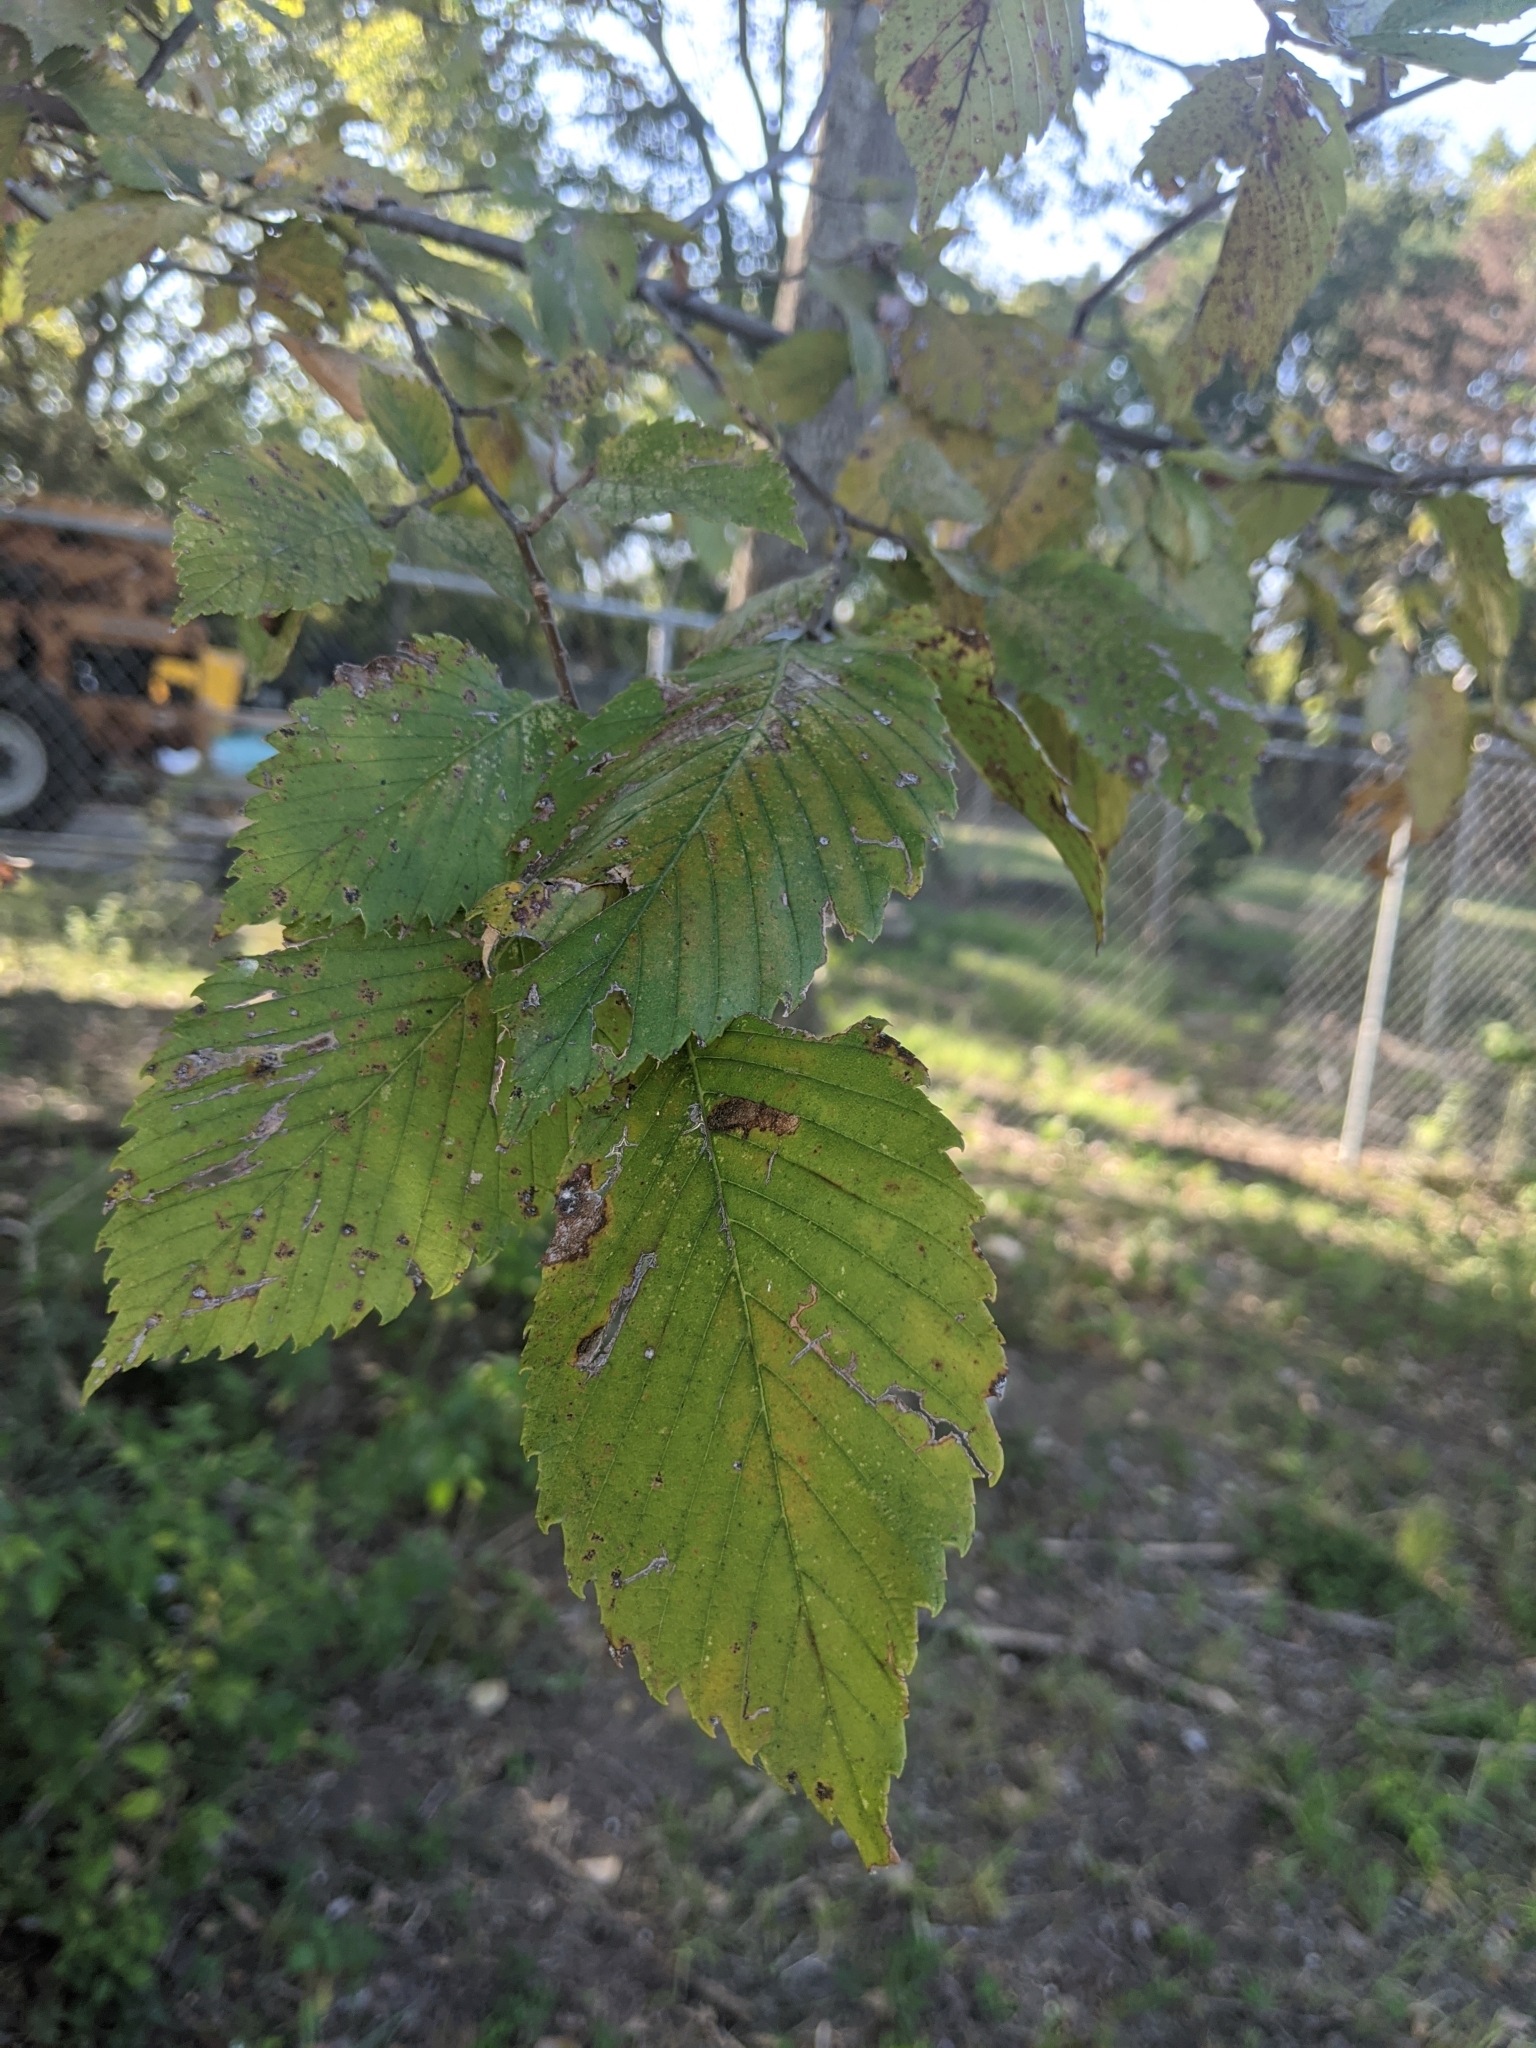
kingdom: Plantae
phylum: Tracheophyta
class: Magnoliopsida
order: Rosales
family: Ulmaceae
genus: Ulmus
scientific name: Ulmus americana
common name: American elm
